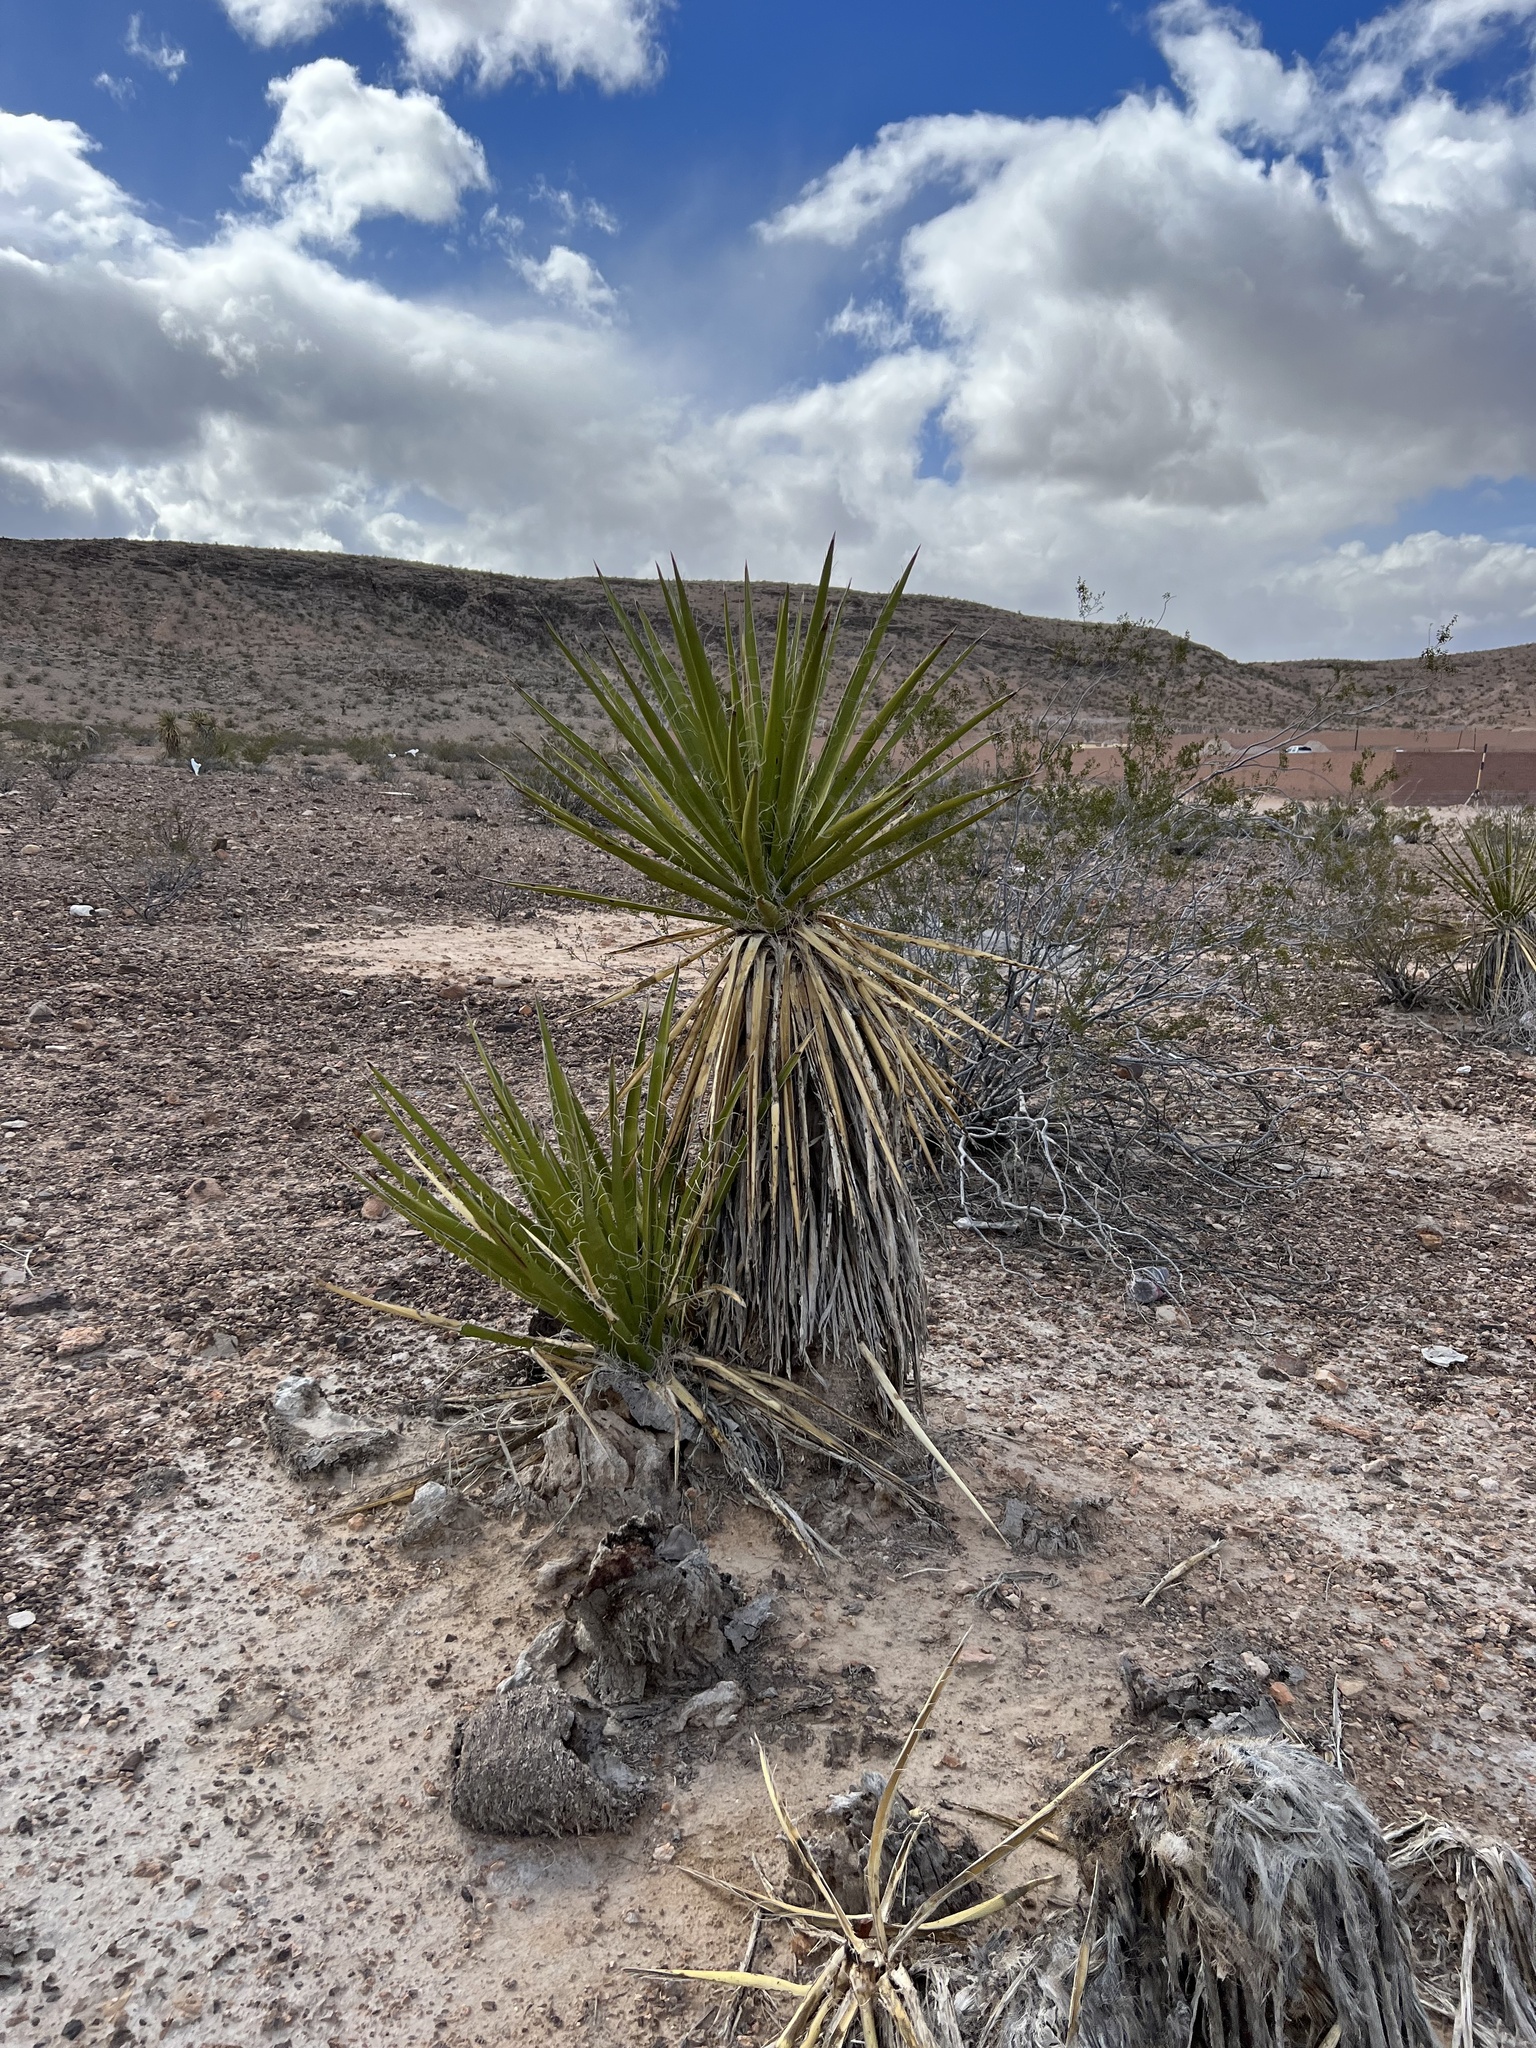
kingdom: Plantae
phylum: Tracheophyta
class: Liliopsida
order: Asparagales
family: Asparagaceae
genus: Yucca
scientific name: Yucca schidigera
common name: Mojave yucca
